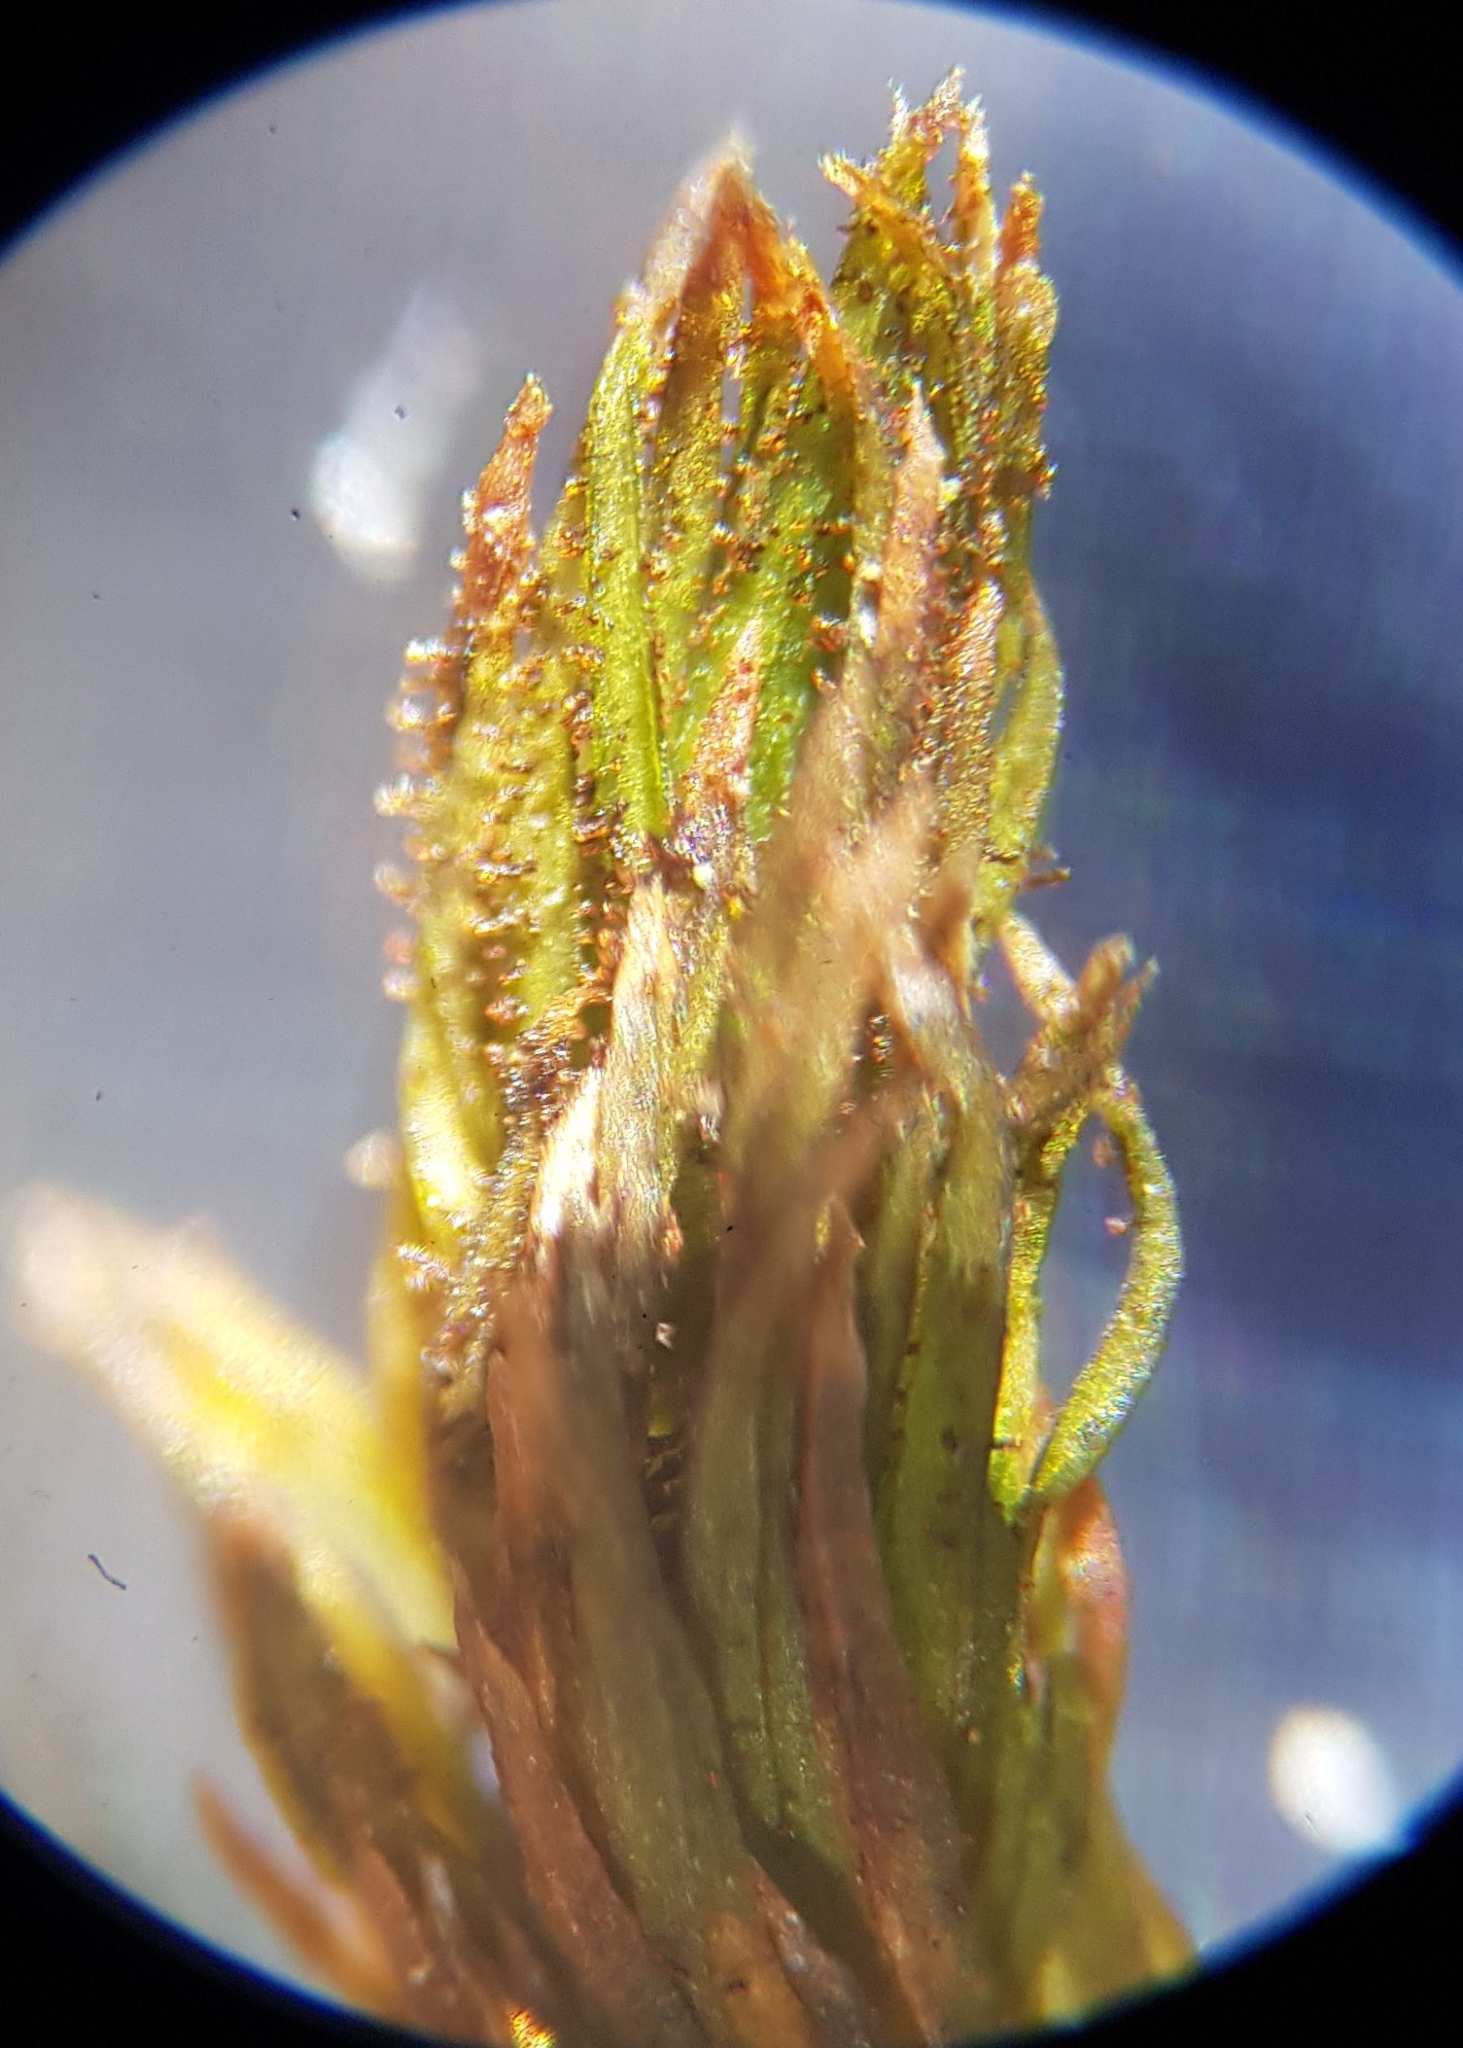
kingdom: Plantae
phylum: Bryophyta
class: Bryopsida
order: Orthotrichales
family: Orthotrichaceae
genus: Pulvigera
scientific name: Pulvigera lyellii
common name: Lyell's bristle-moss
